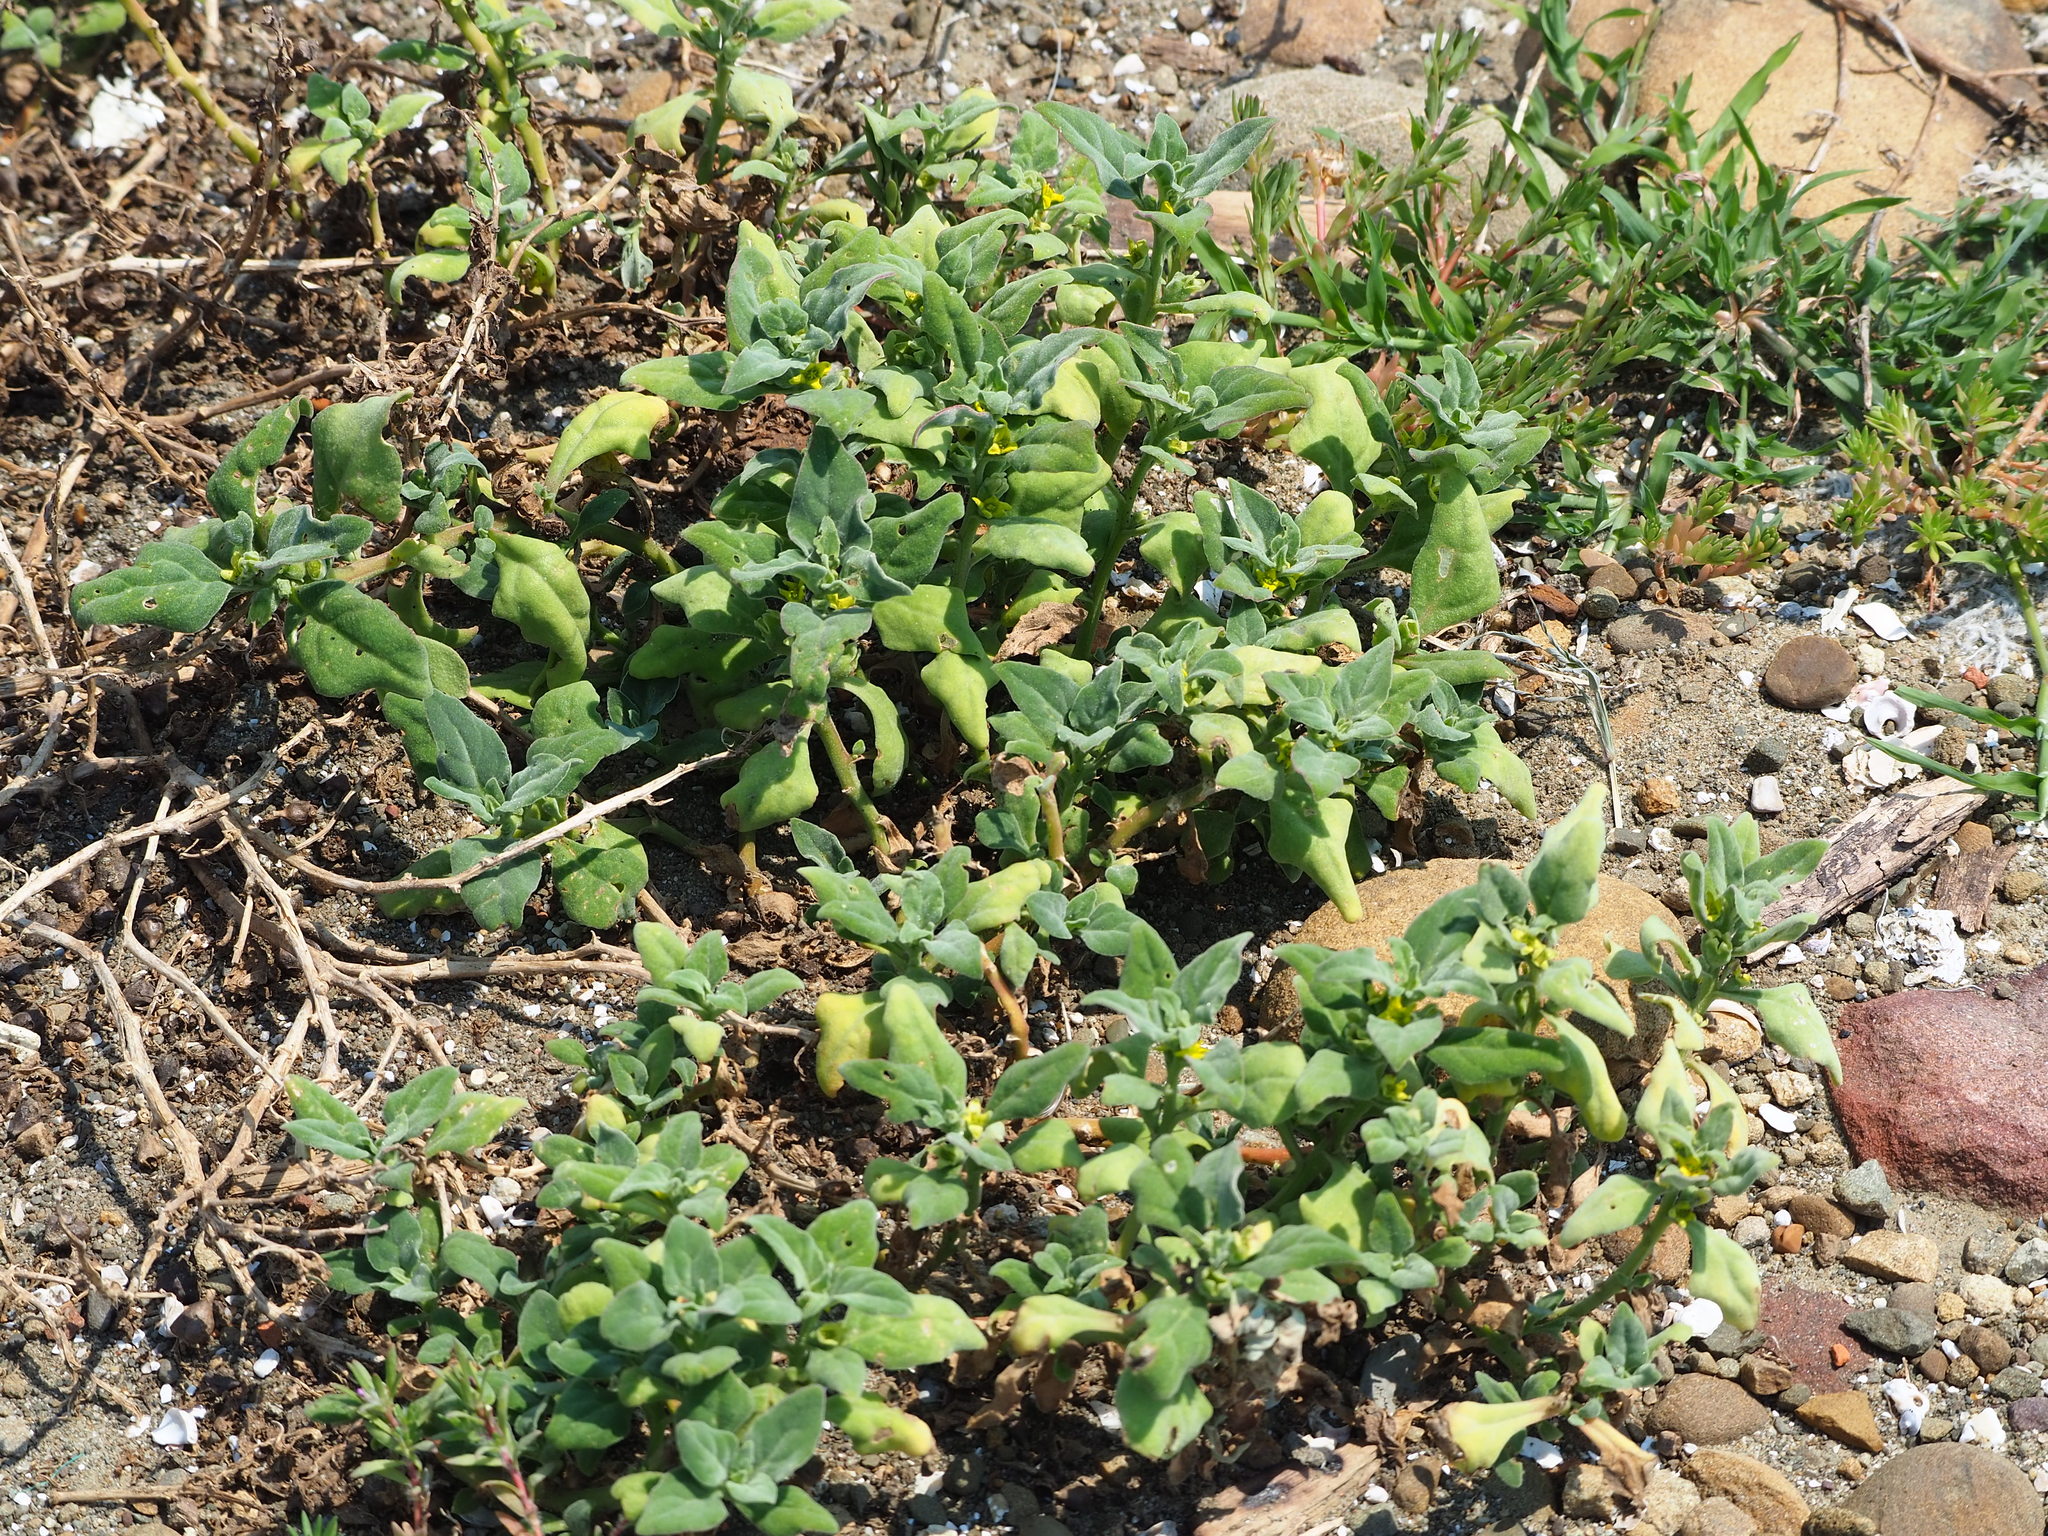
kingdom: Plantae
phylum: Tracheophyta
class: Magnoliopsida
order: Caryophyllales
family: Aizoaceae
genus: Tetragonia
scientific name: Tetragonia tetragonoides
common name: New zealand-spinach
